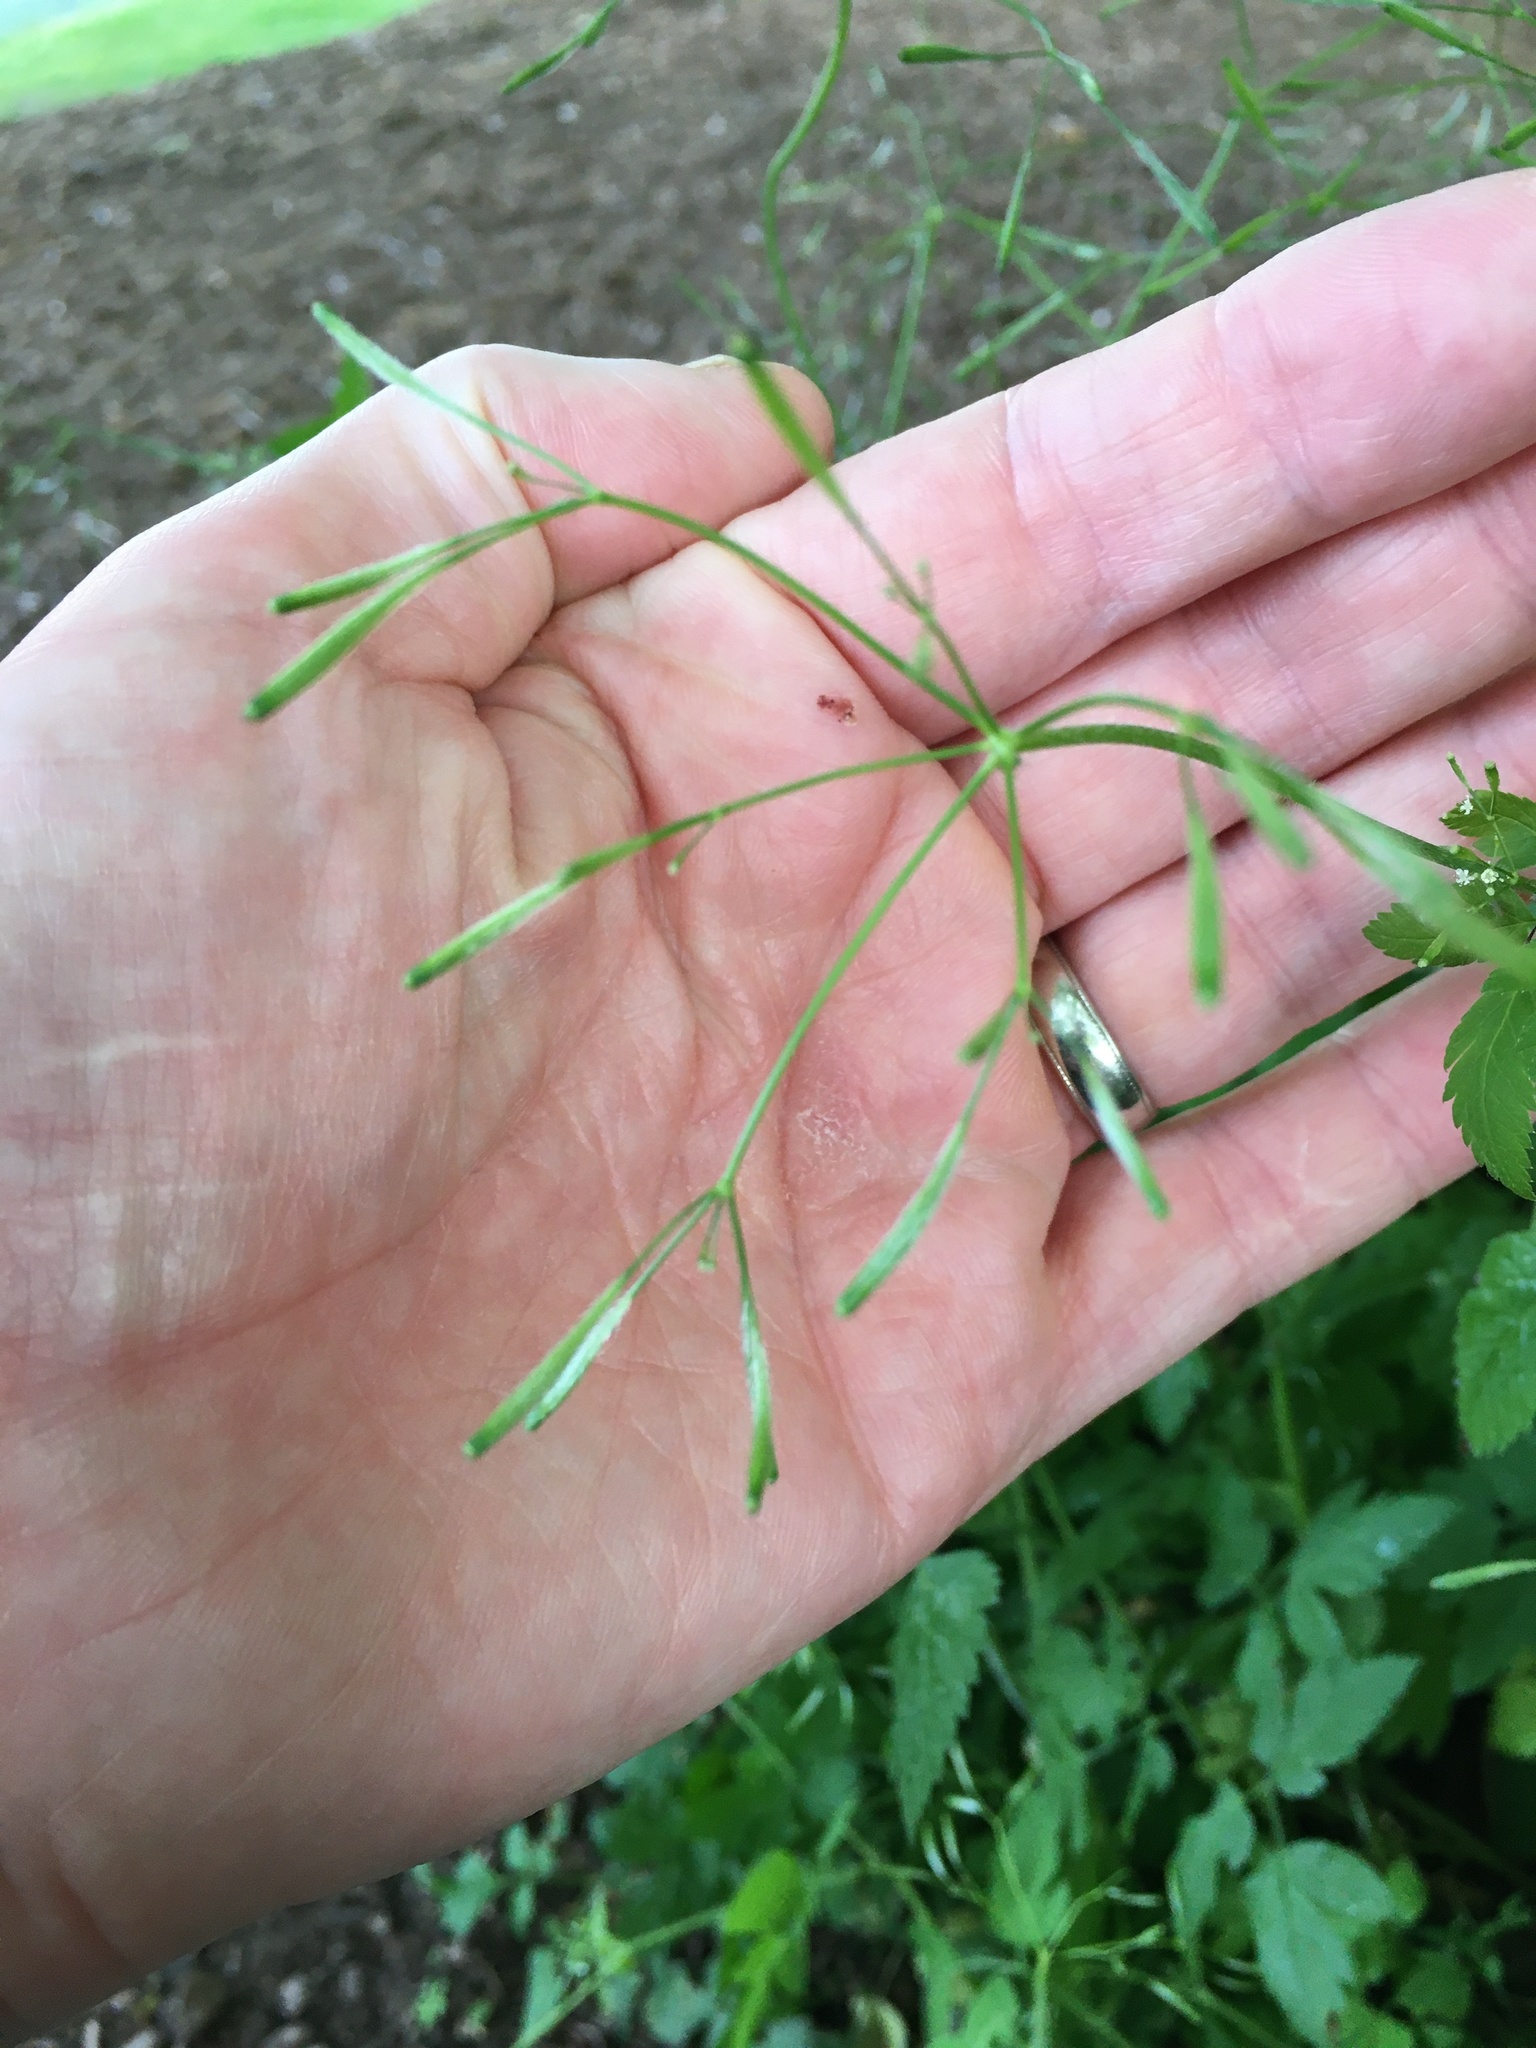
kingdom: Plantae
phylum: Tracheophyta
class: Magnoliopsida
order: Apiales
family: Apiaceae
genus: Osmorhiza
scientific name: Osmorhiza berteroi
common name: Mountain sweet cicely
